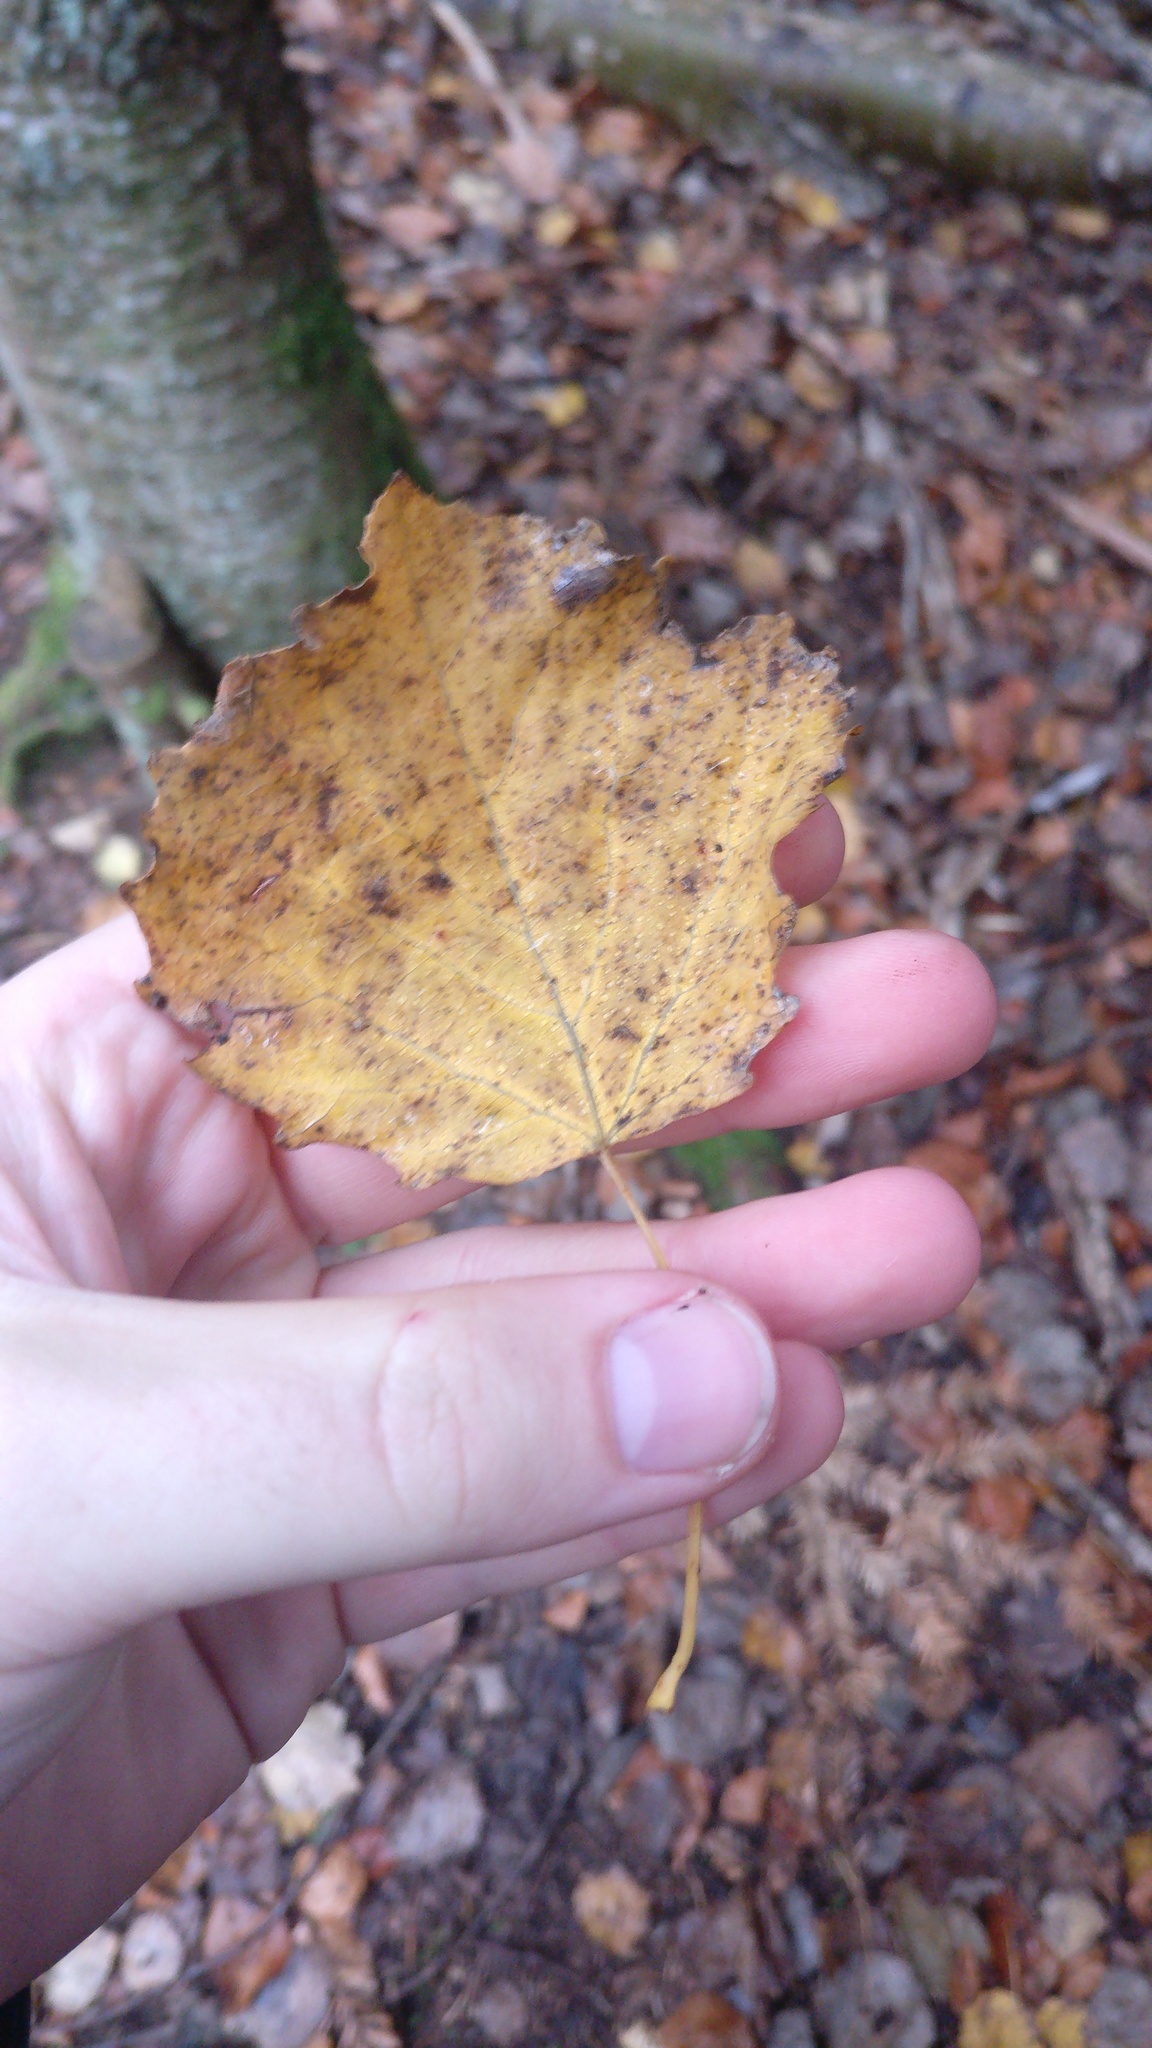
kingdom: Plantae
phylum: Tracheophyta
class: Magnoliopsida
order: Malpighiales
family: Salicaceae
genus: Populus
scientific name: Populus tremula
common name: European aspen
